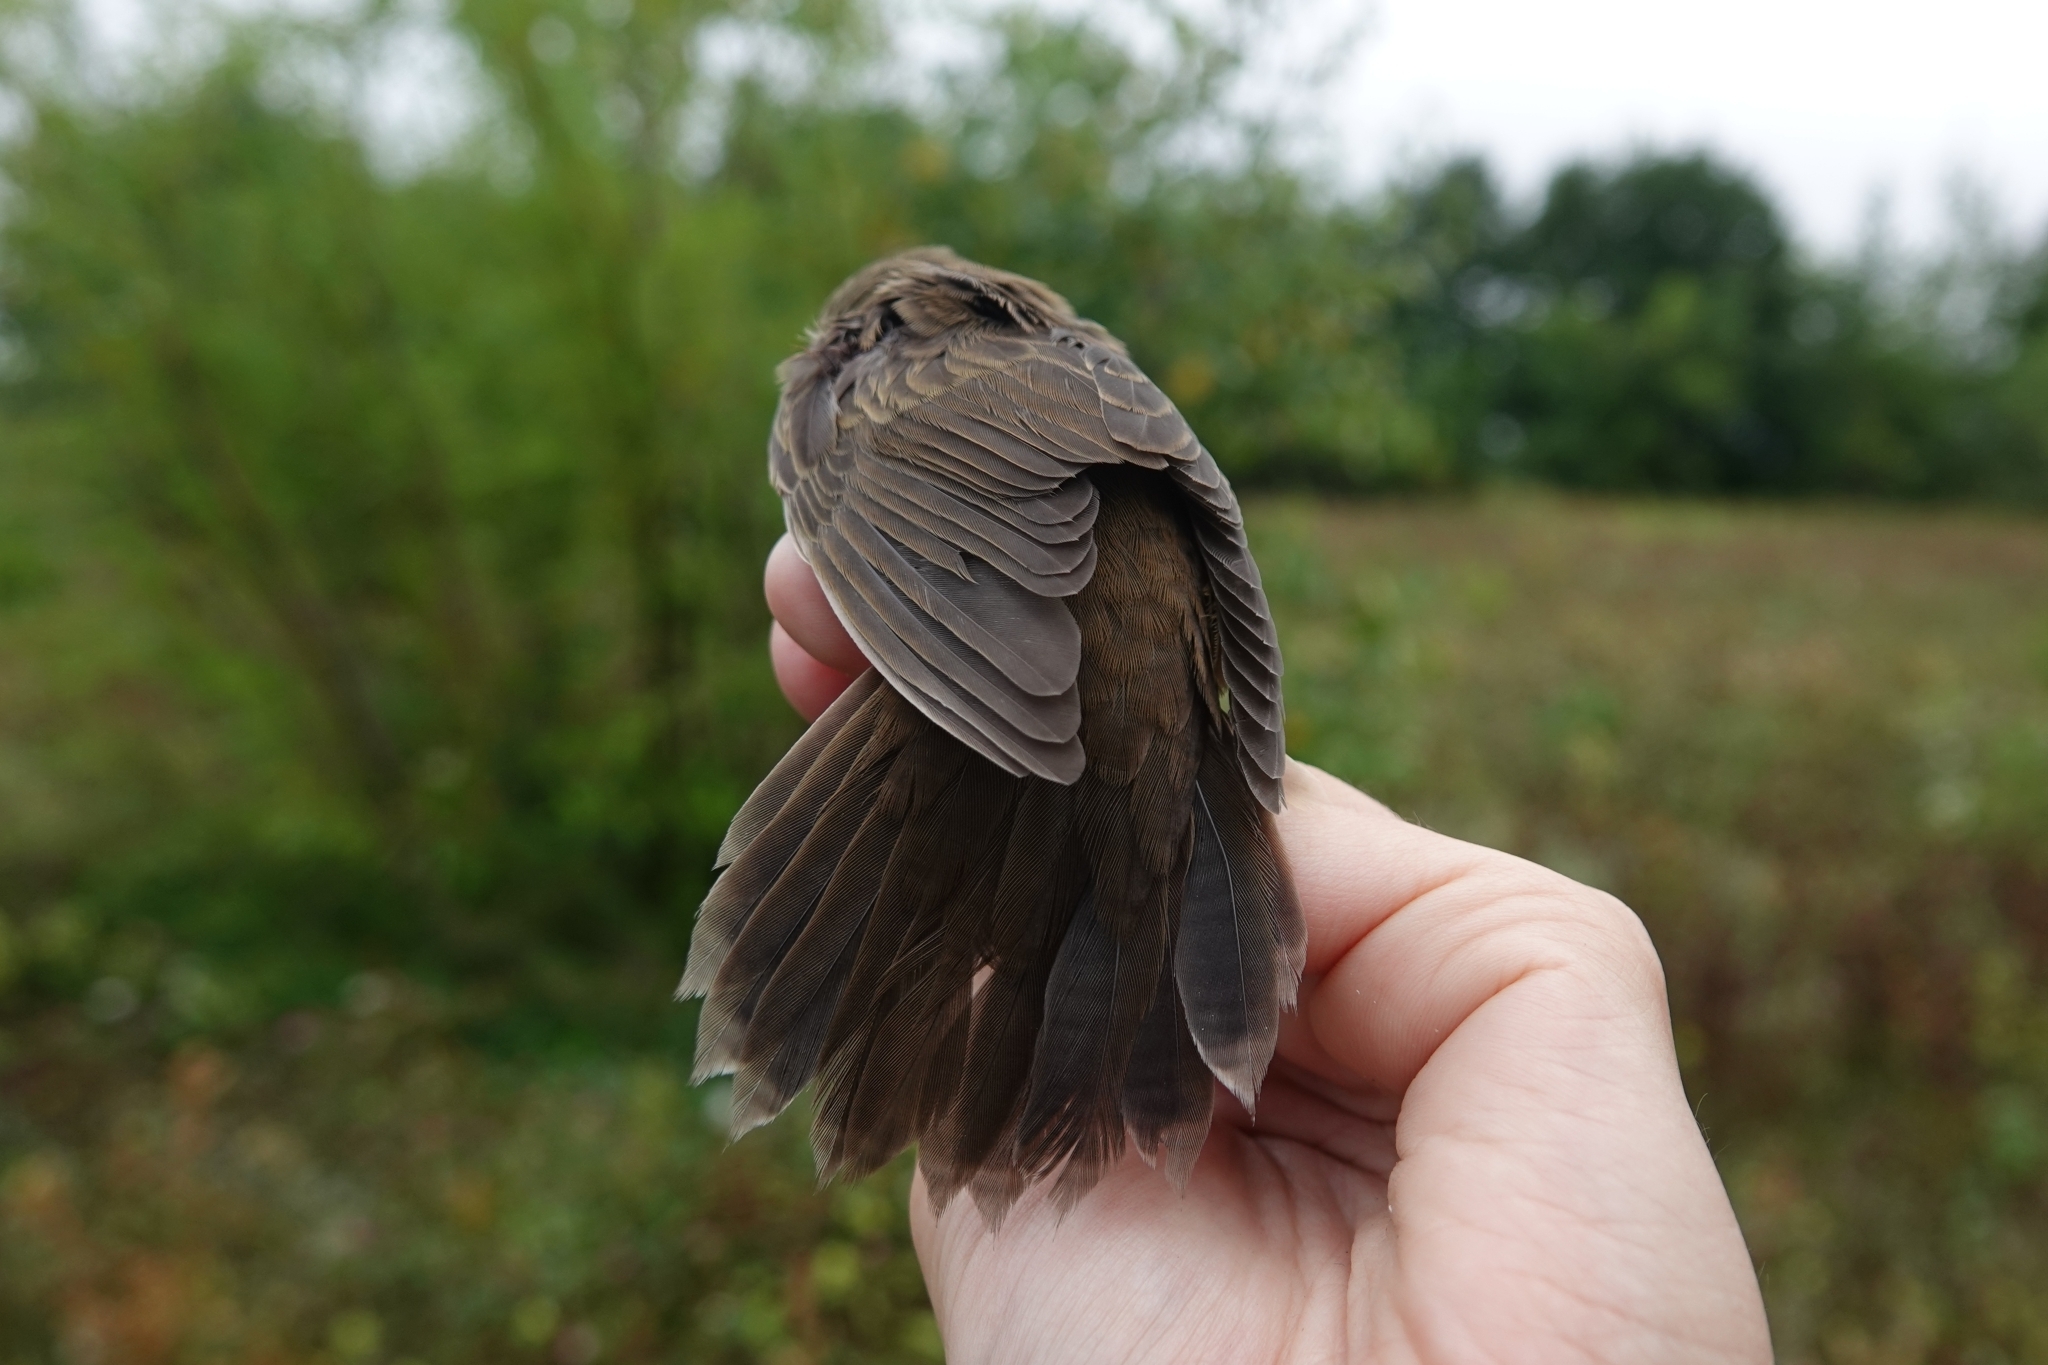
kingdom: Animalia
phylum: Chordata
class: Aves
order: Passeriformes
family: Locustellidae
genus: Locustella
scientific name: Locustella ochotensis
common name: Middendorff's grasshopper-warbler
